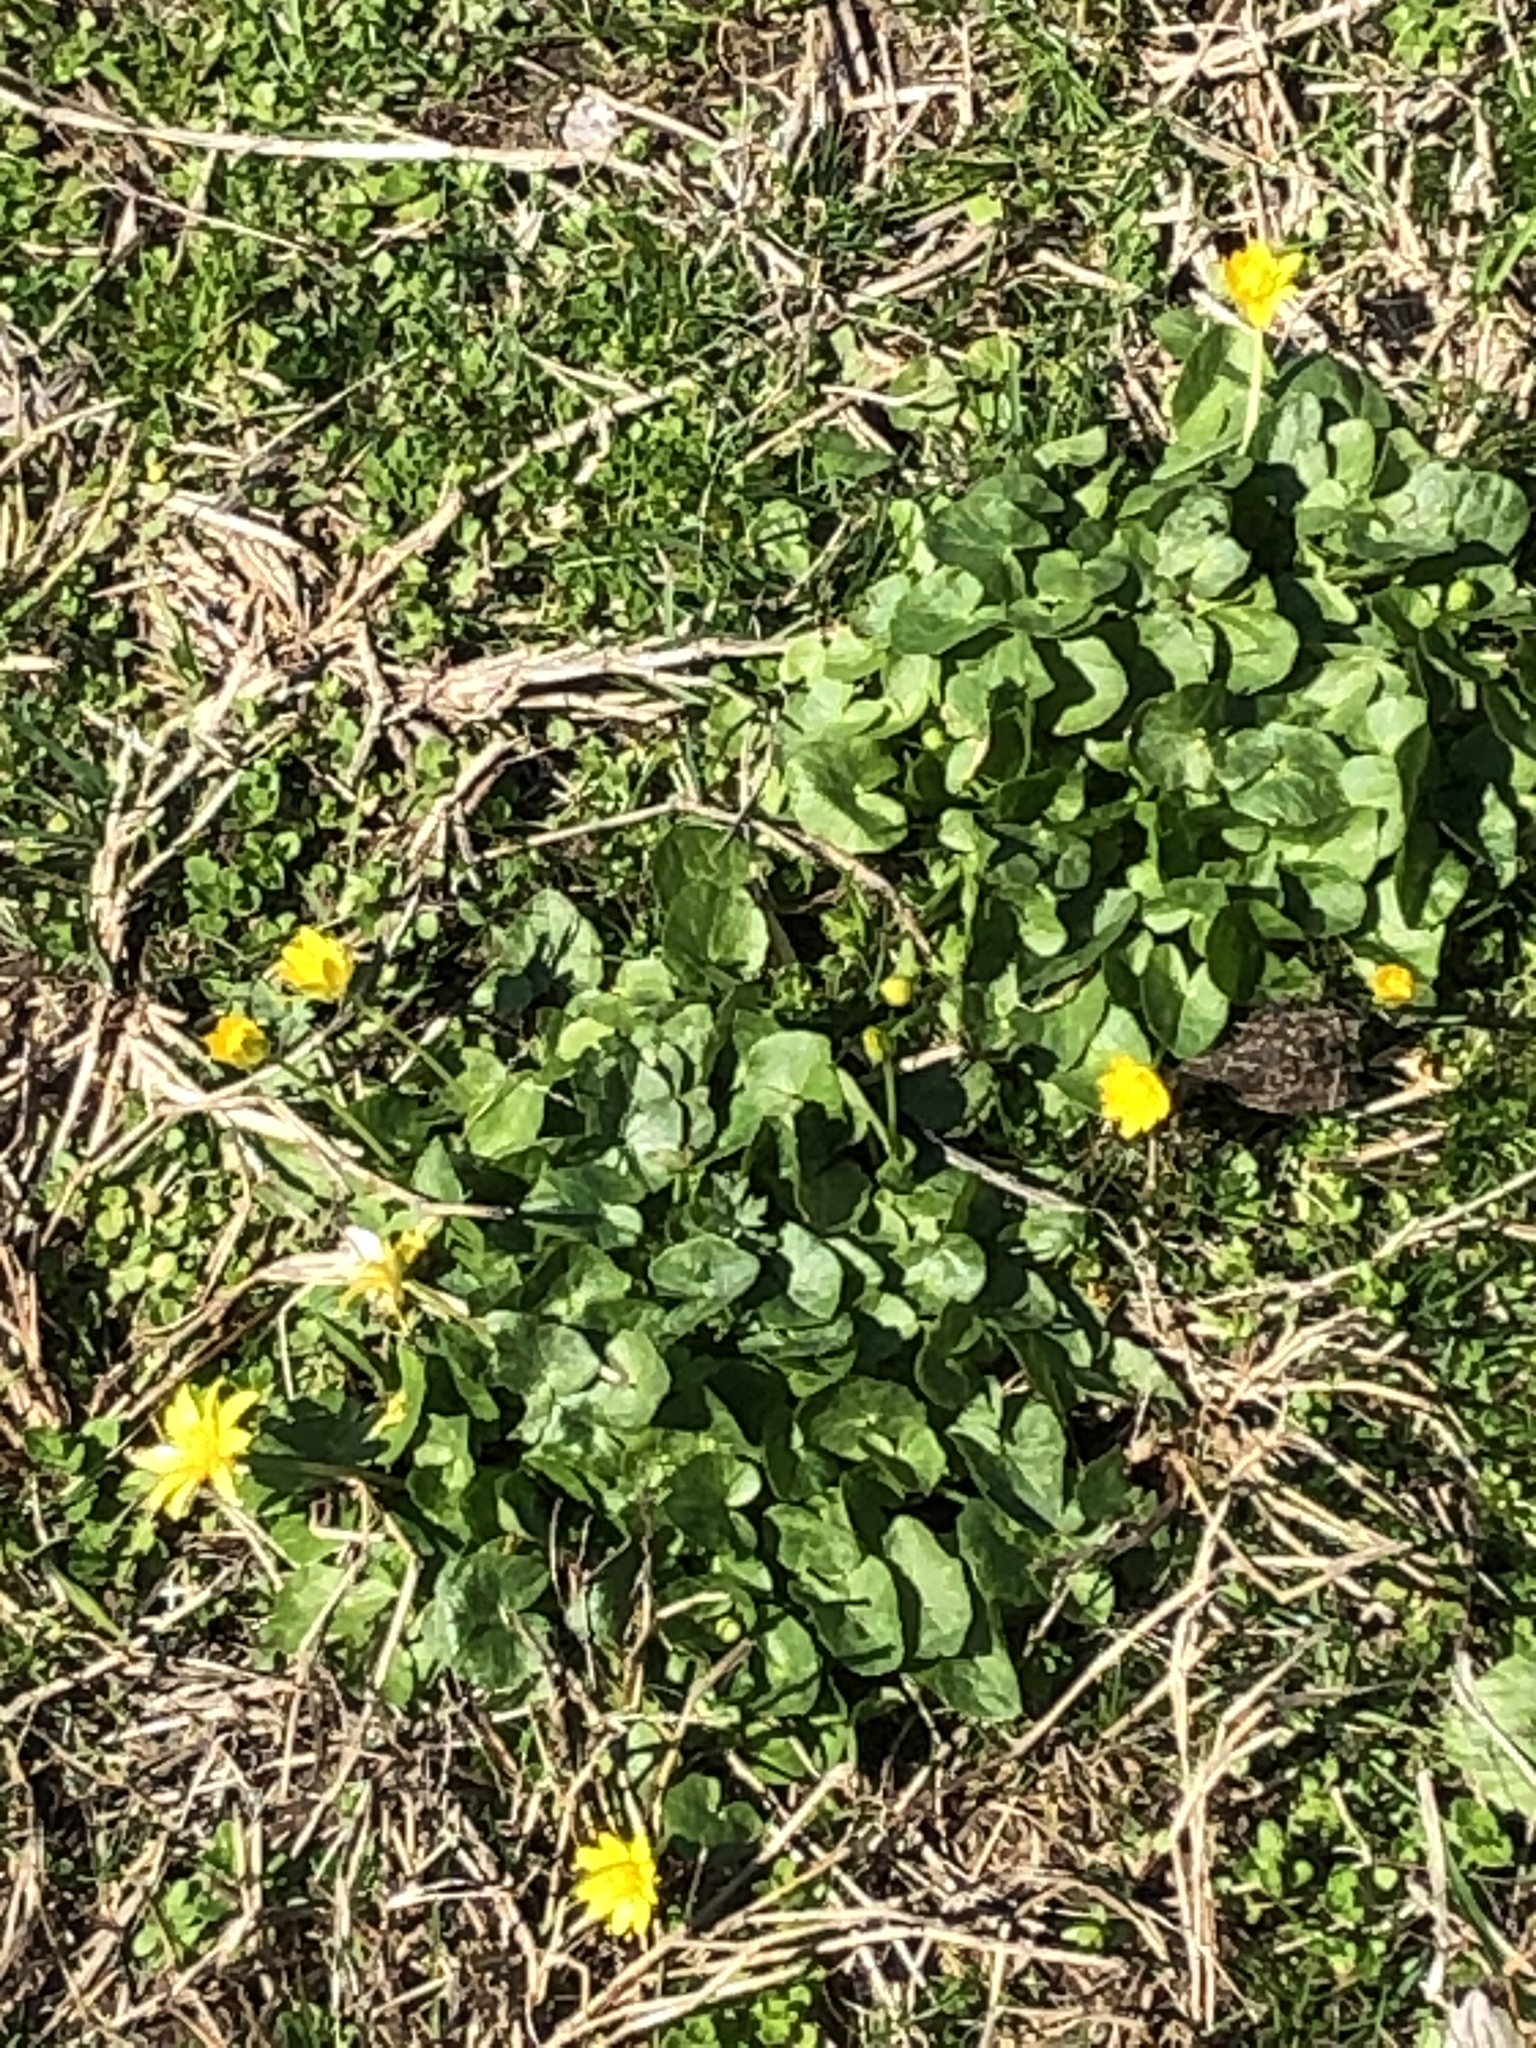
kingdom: Plantae
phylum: Tracheophyta
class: Magnoliopsida
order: Ranunculales
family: Ranunculaceae
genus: Ficaria
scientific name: Ficaria verna
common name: Lesser celandine
